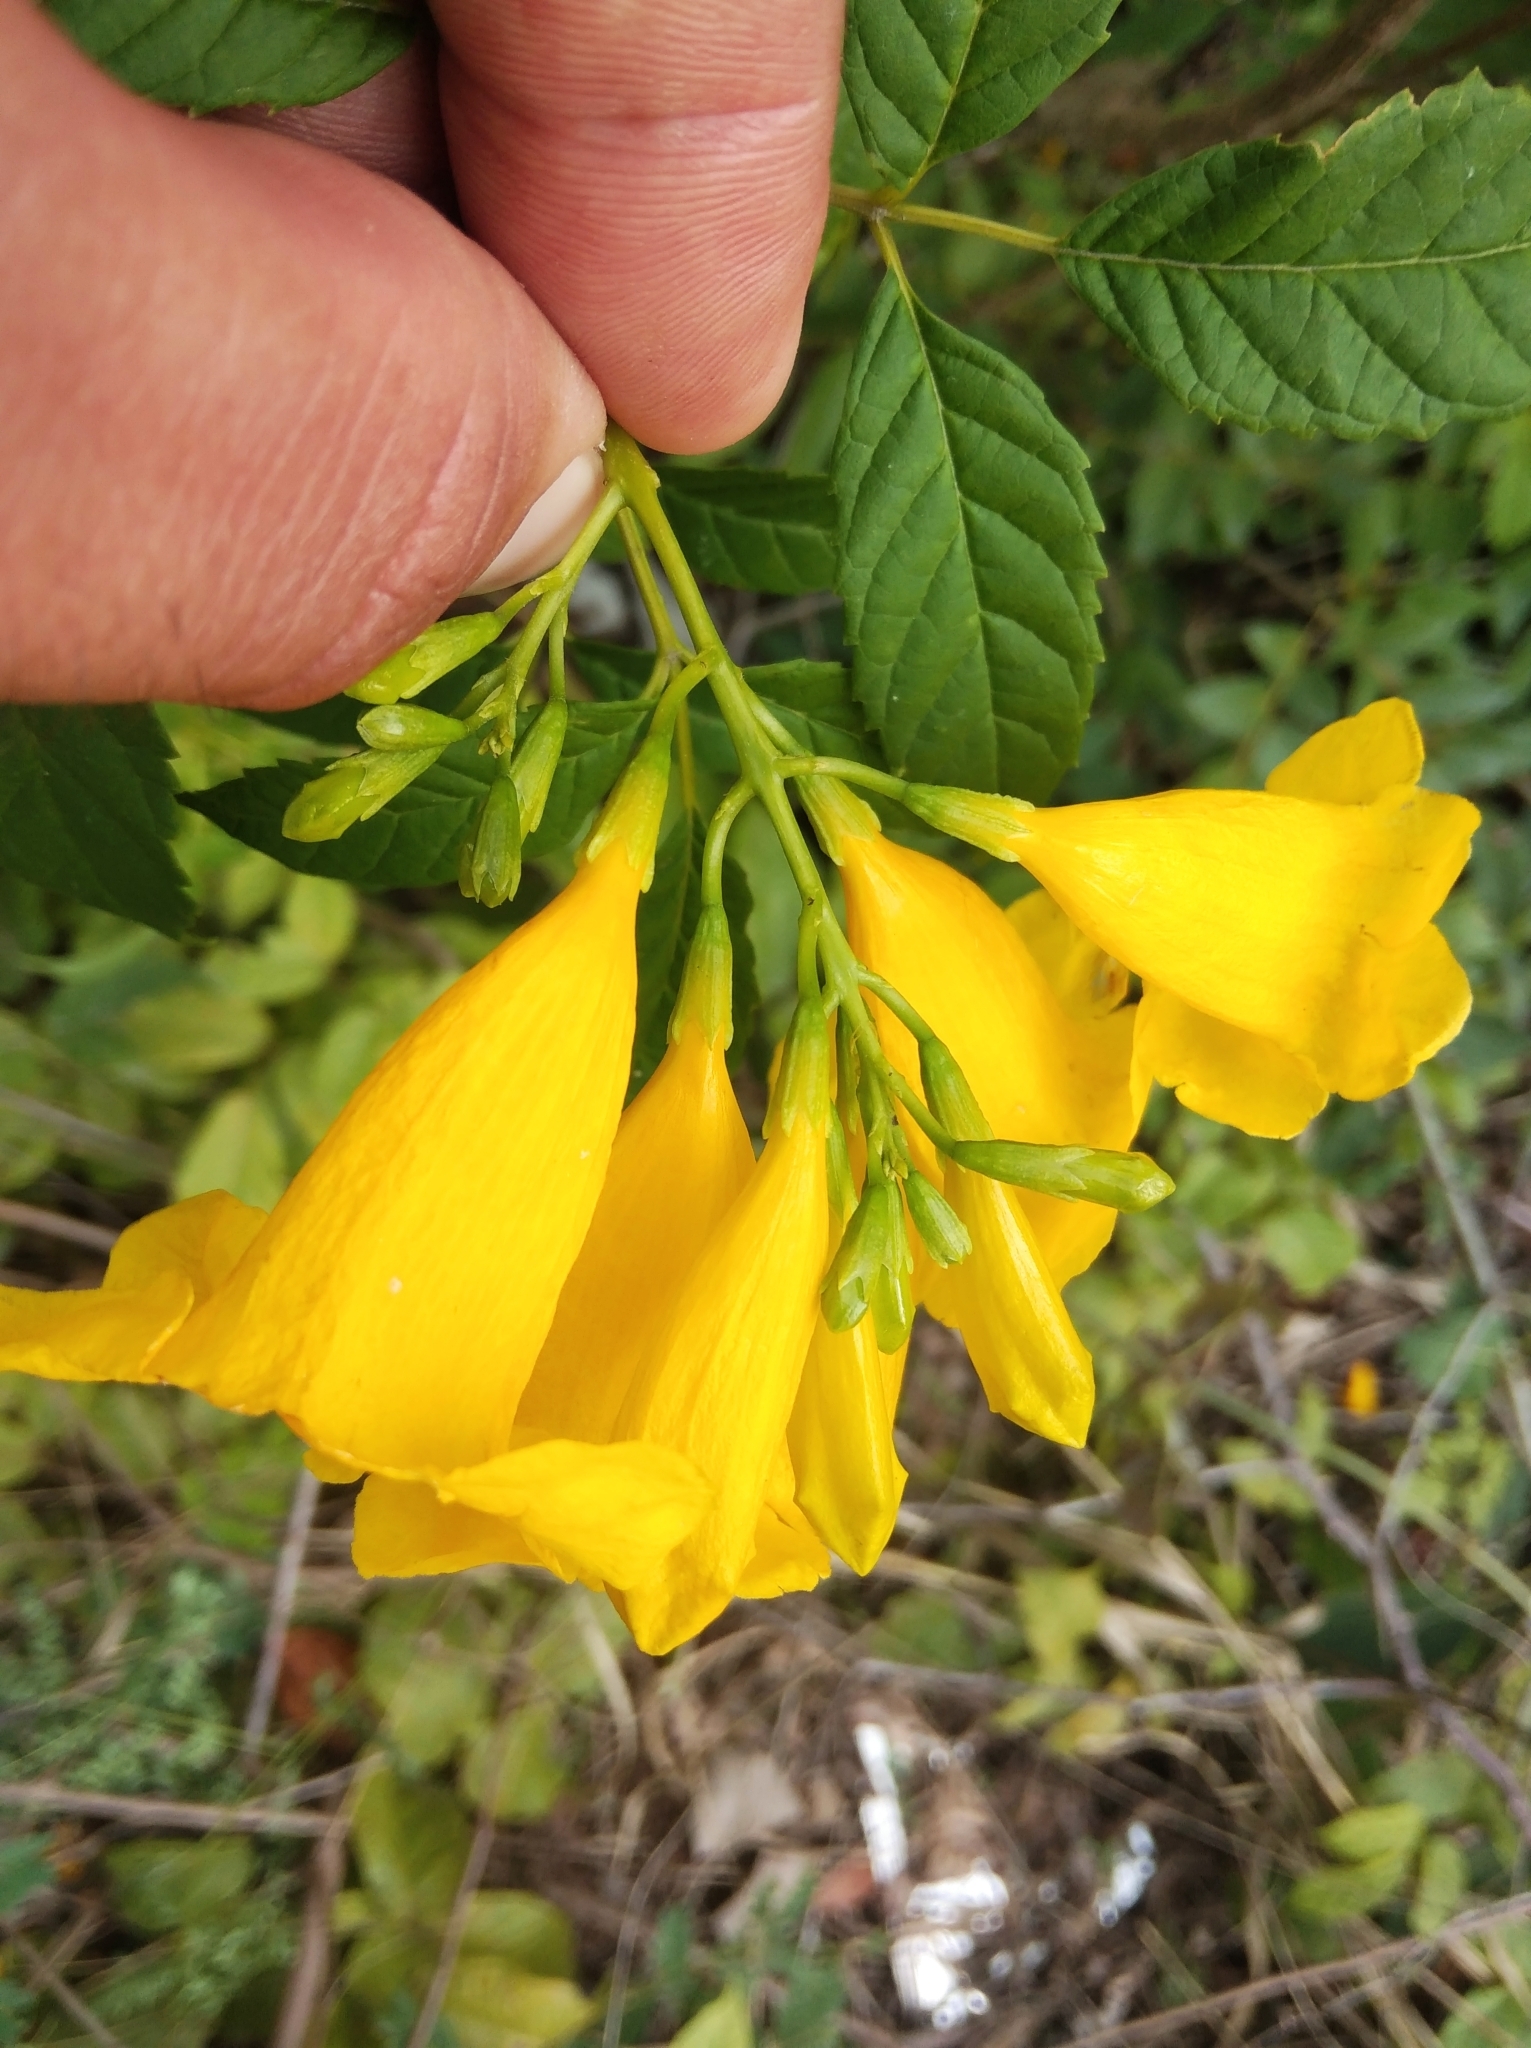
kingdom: Plantae
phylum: Tracheophyta
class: Magnoliopsida
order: Lamiales
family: Bignoniaceae
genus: Tecoma
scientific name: Tecoma stans
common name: Yellow trumpetbush
